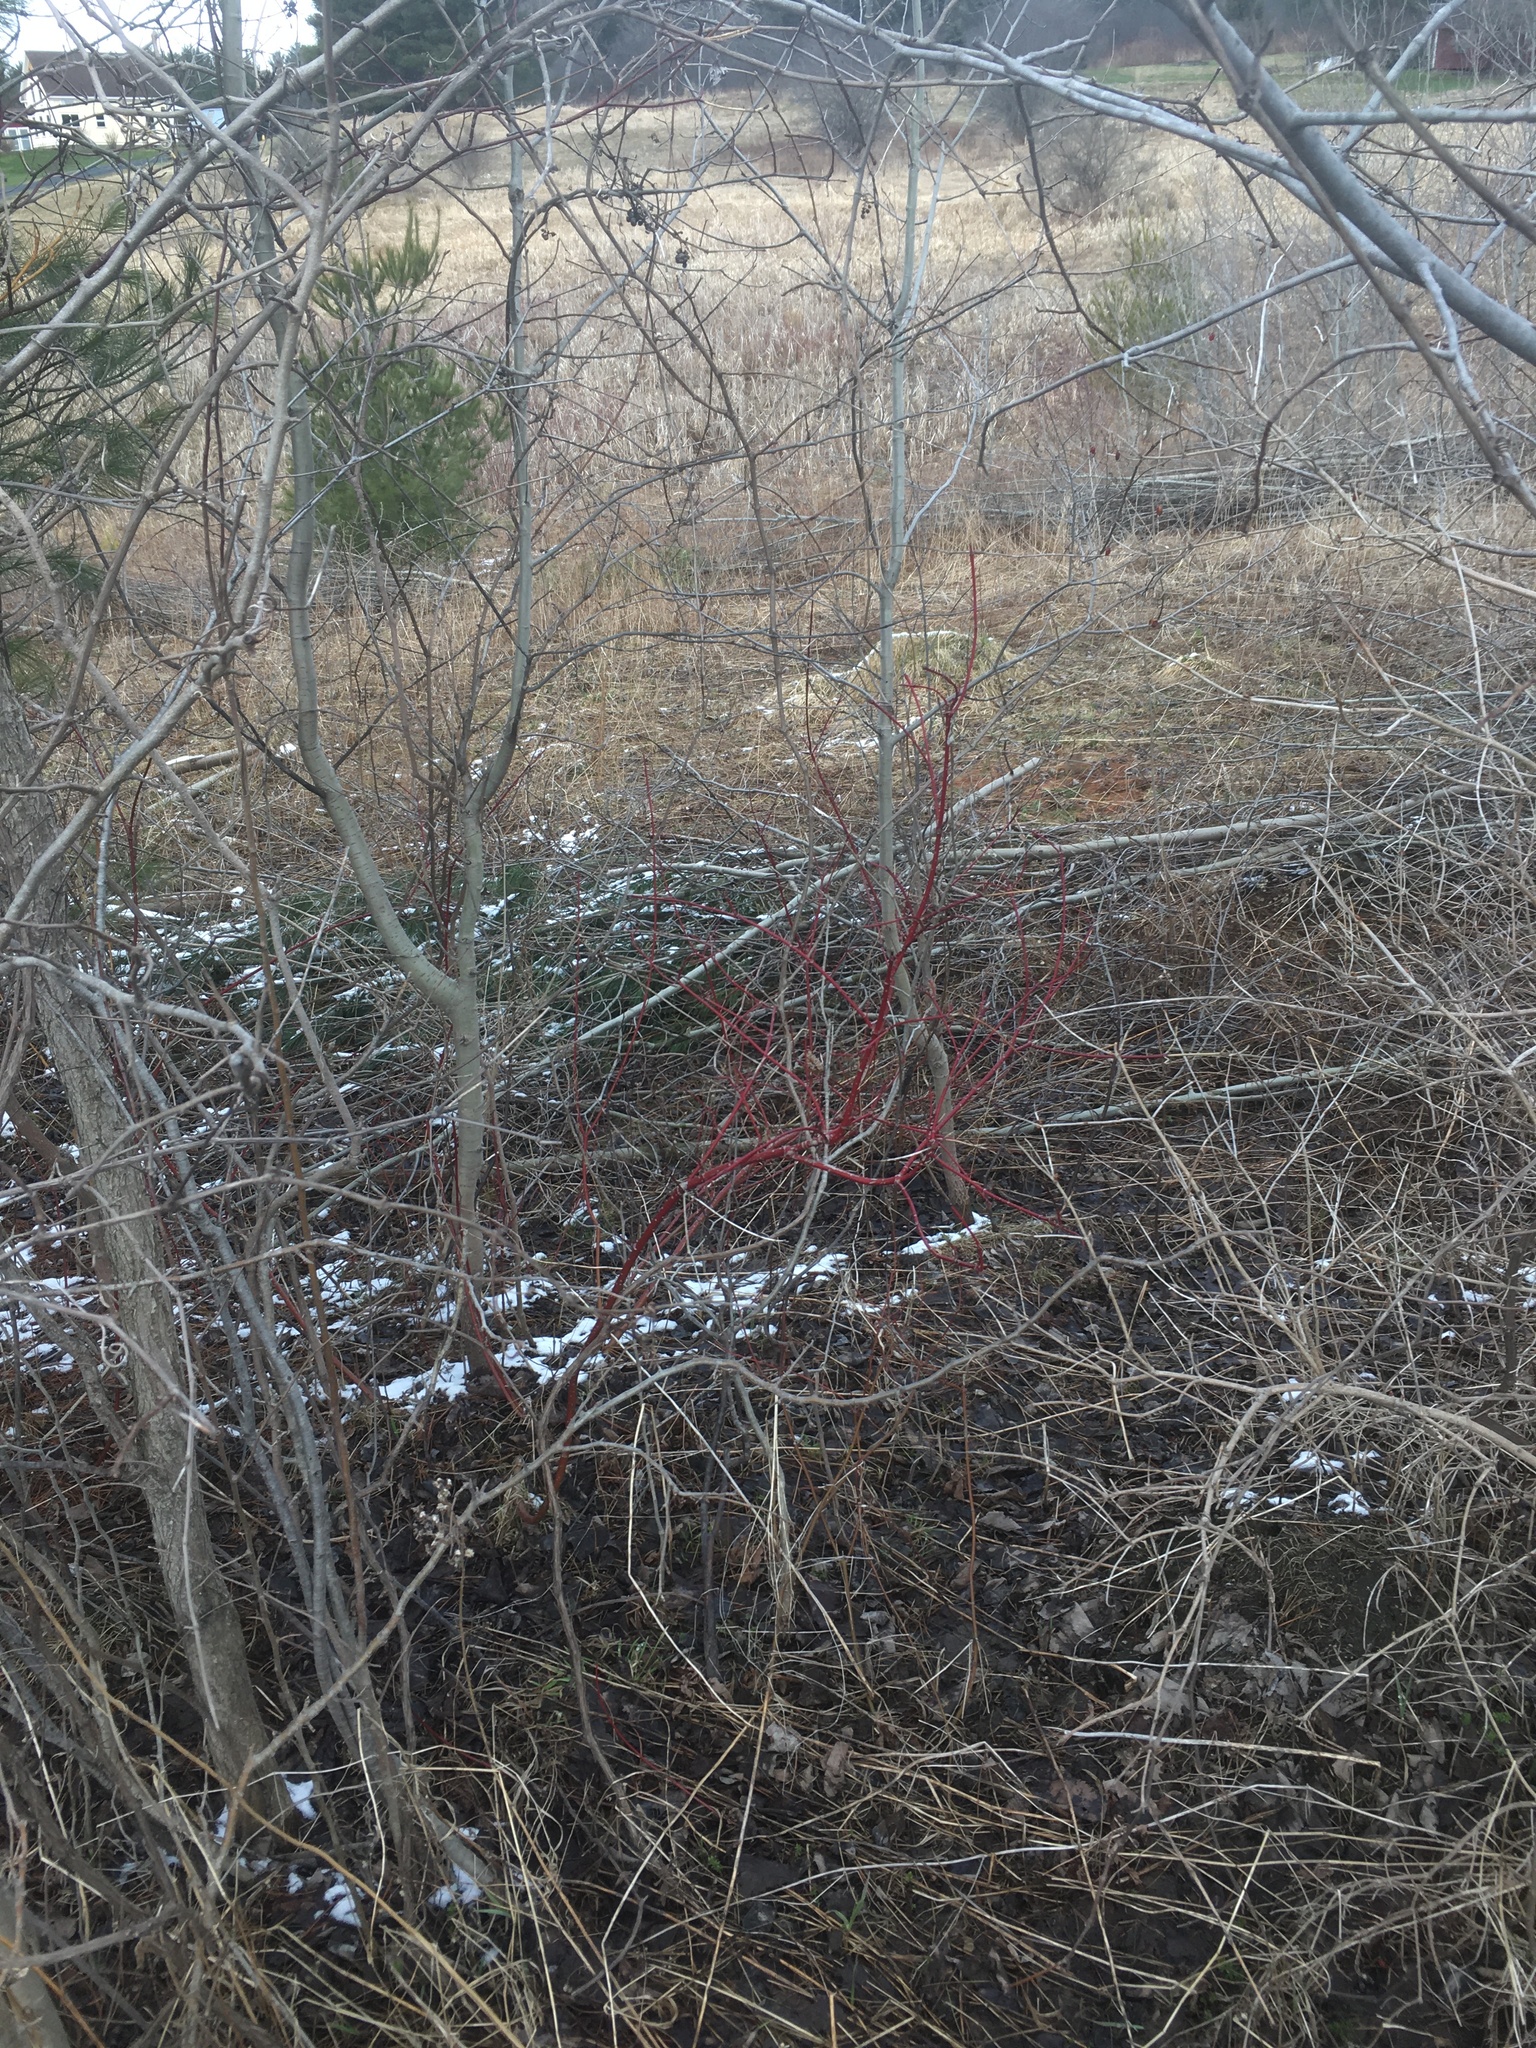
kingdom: Plantae
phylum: Tracheophyta
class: Magnoliopsida
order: Cornales
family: Cornaceae
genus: Cornus
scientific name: Cornus sericea
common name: Red-osier dogwood
